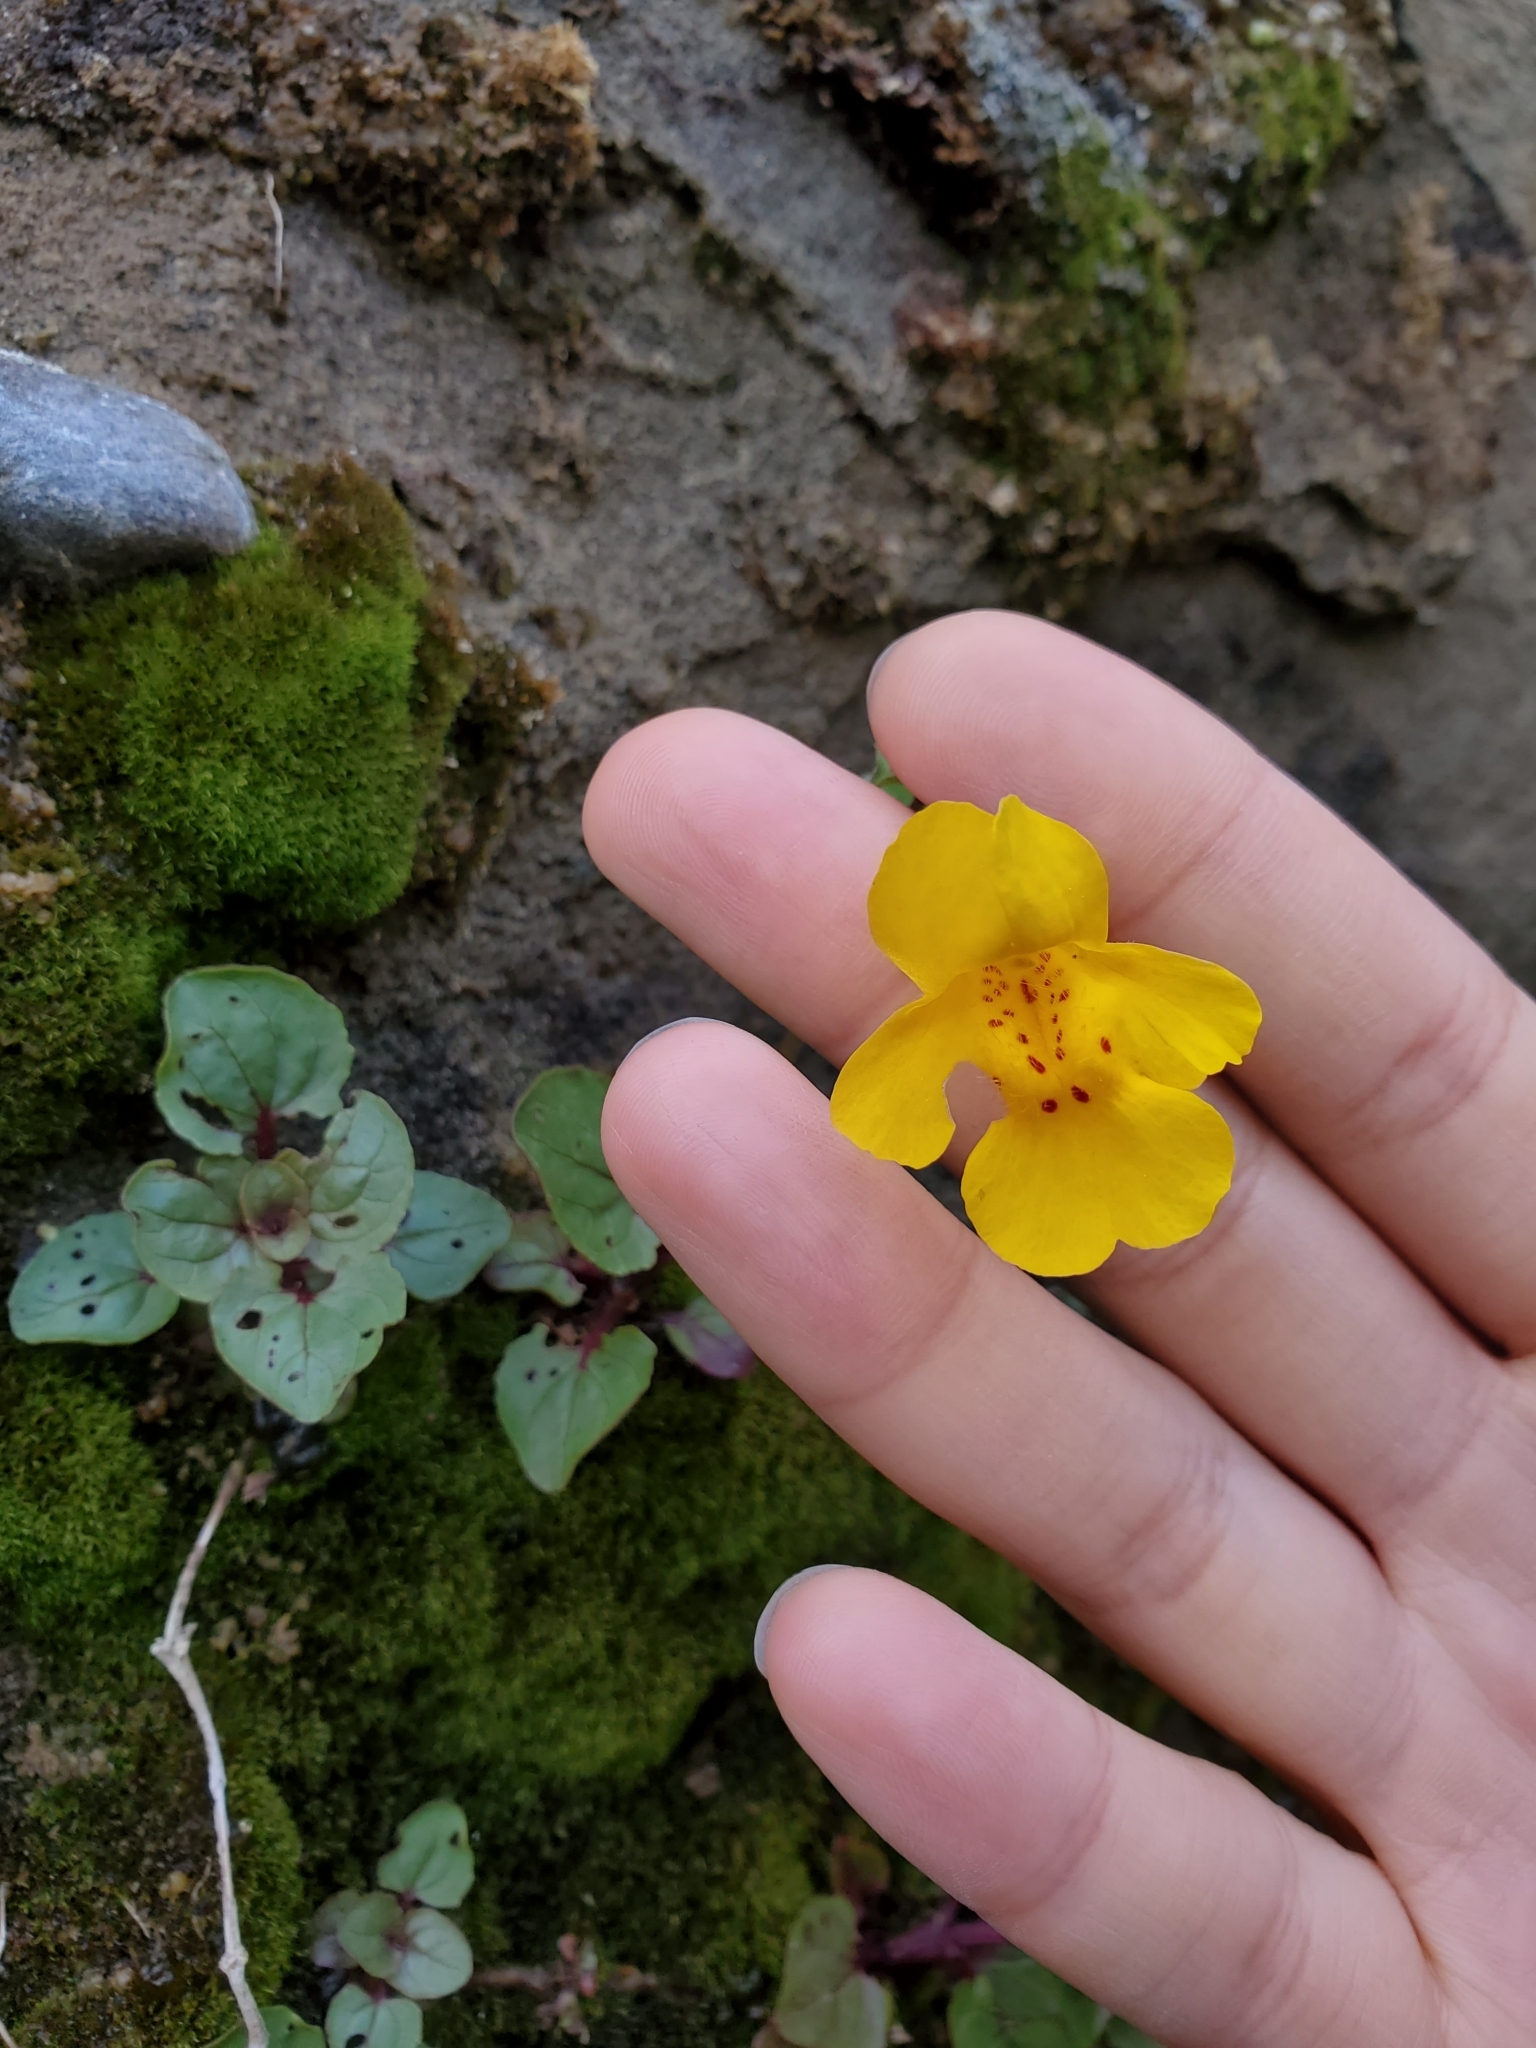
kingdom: Plantae
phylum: Tracheophyta
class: Magnoliopsida
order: Lamiales
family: Phrymaceae
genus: Erythranthe
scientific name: Erythranthe guttata
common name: Monkeyflower
